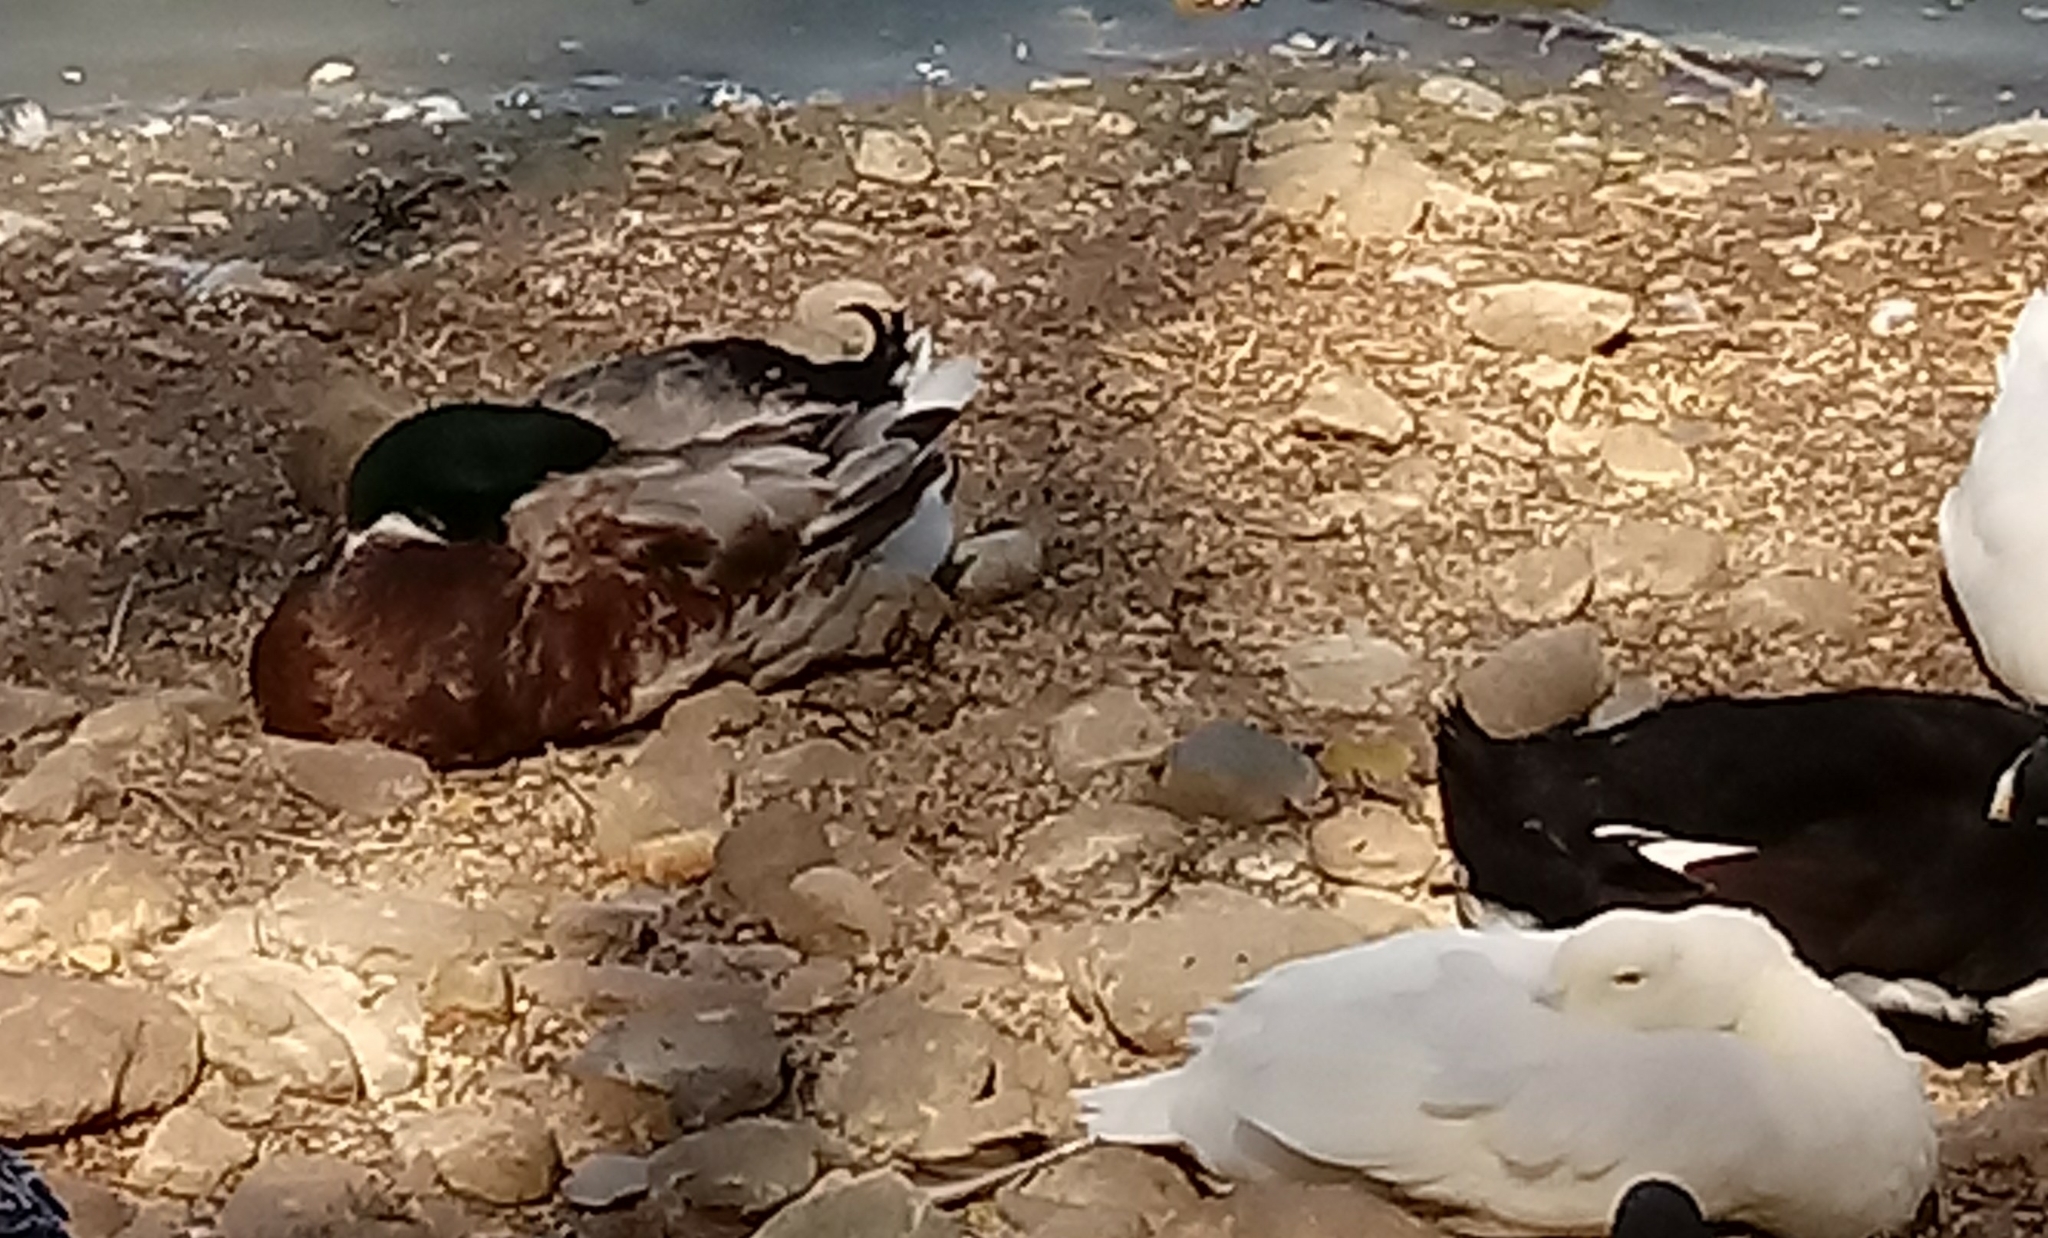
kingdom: Animalia
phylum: Chordata
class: Aves
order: Anseriformes
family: Anatidae
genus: Anas
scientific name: Anas platyrhynchos
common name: Mallard
